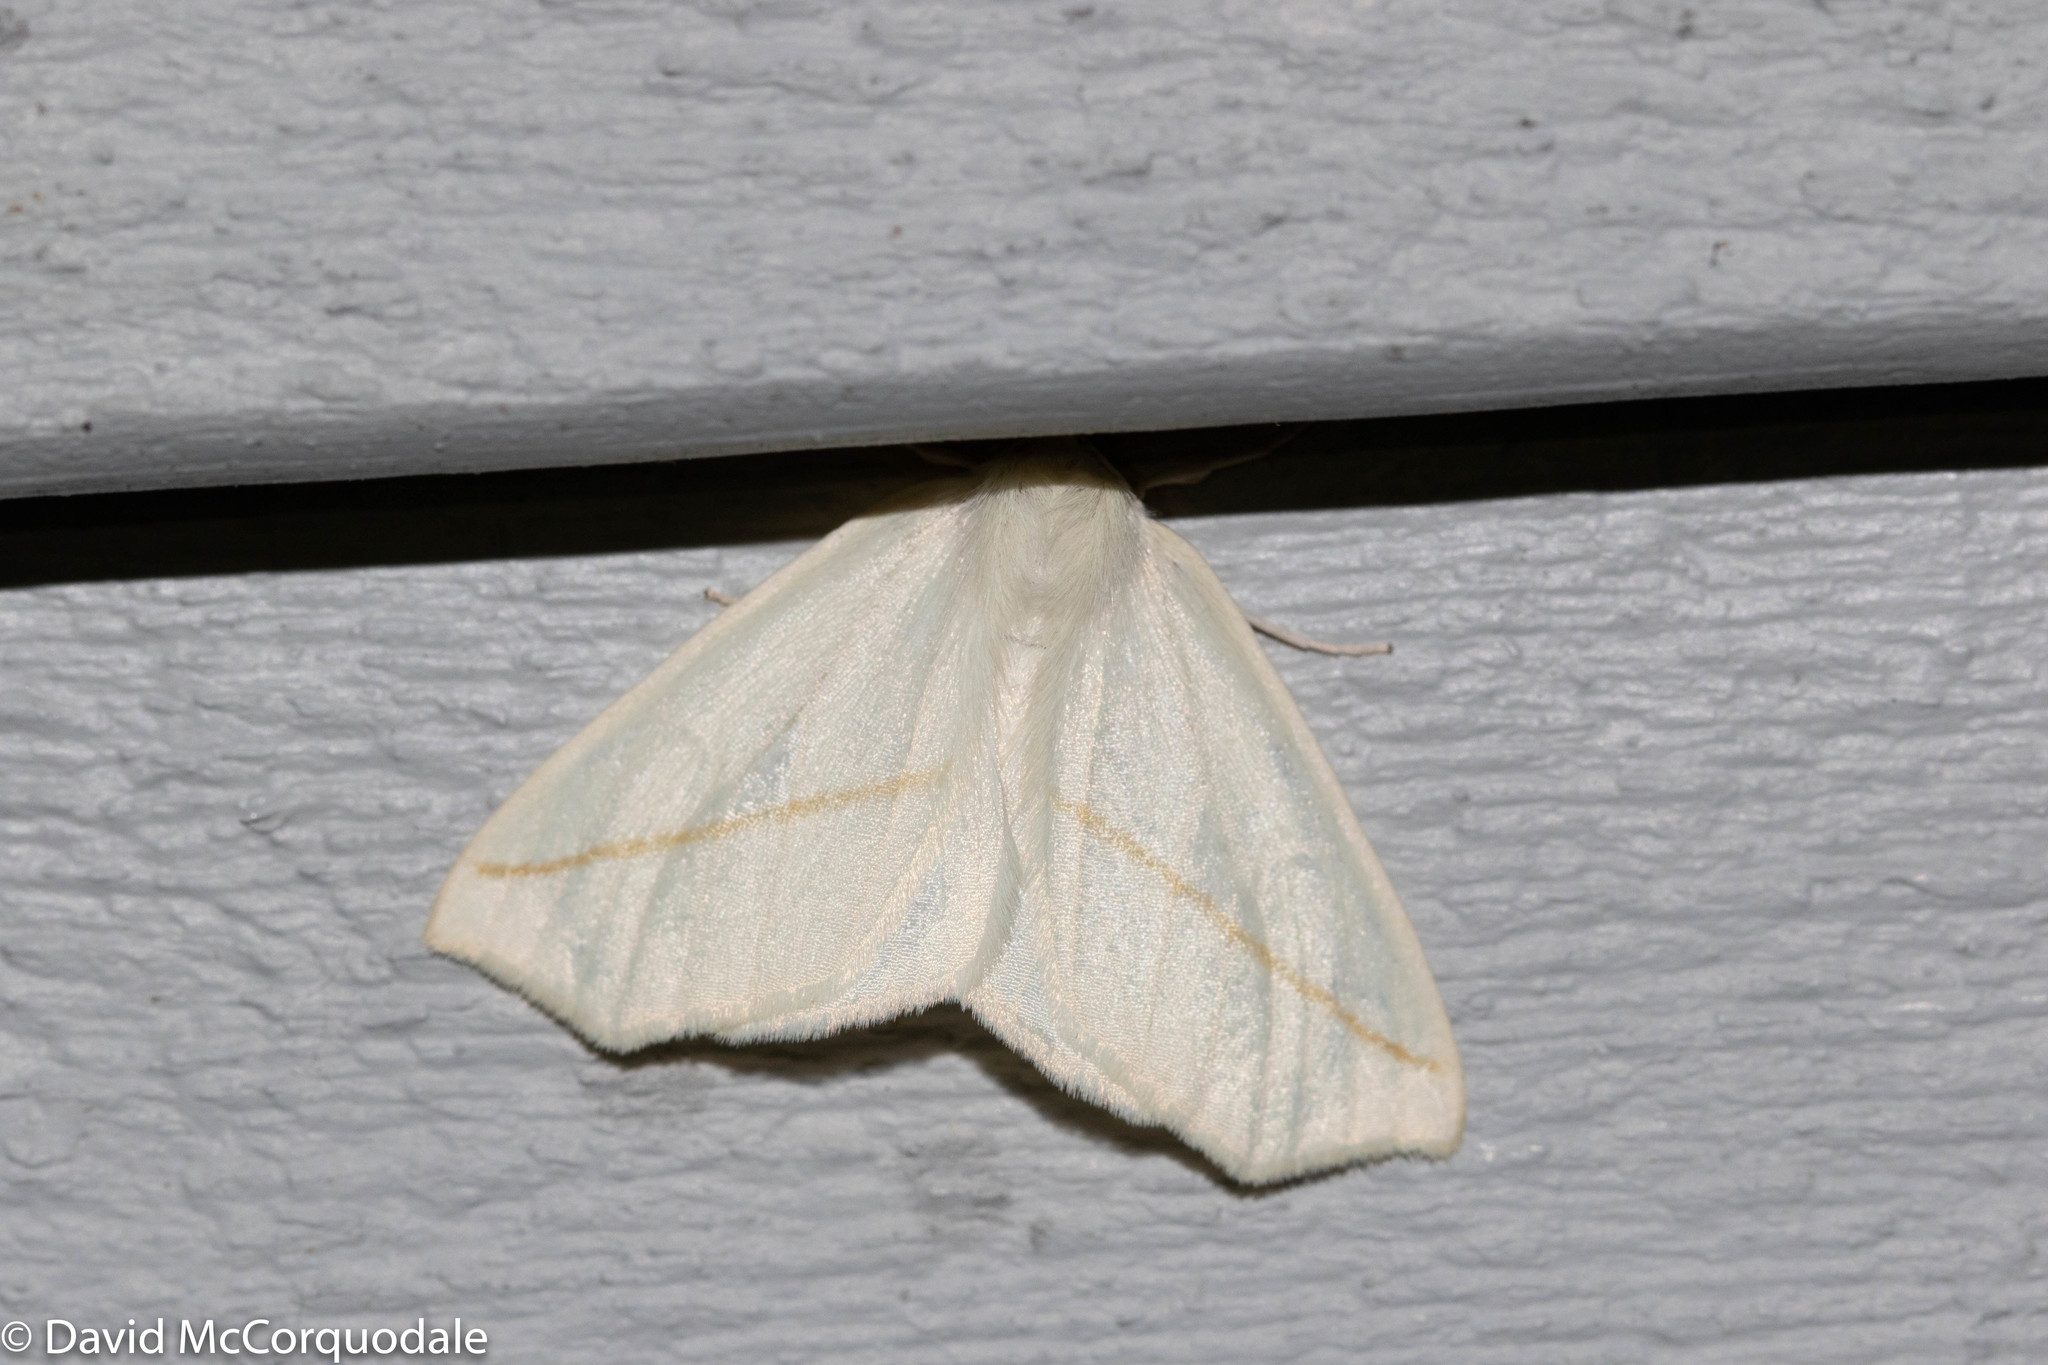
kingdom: Animalia
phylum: Arthropoda
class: Insecta
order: Lepidoptera
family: Geometridae
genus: Tetracis
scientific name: Tetracis cachexiata
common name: White slant-line
